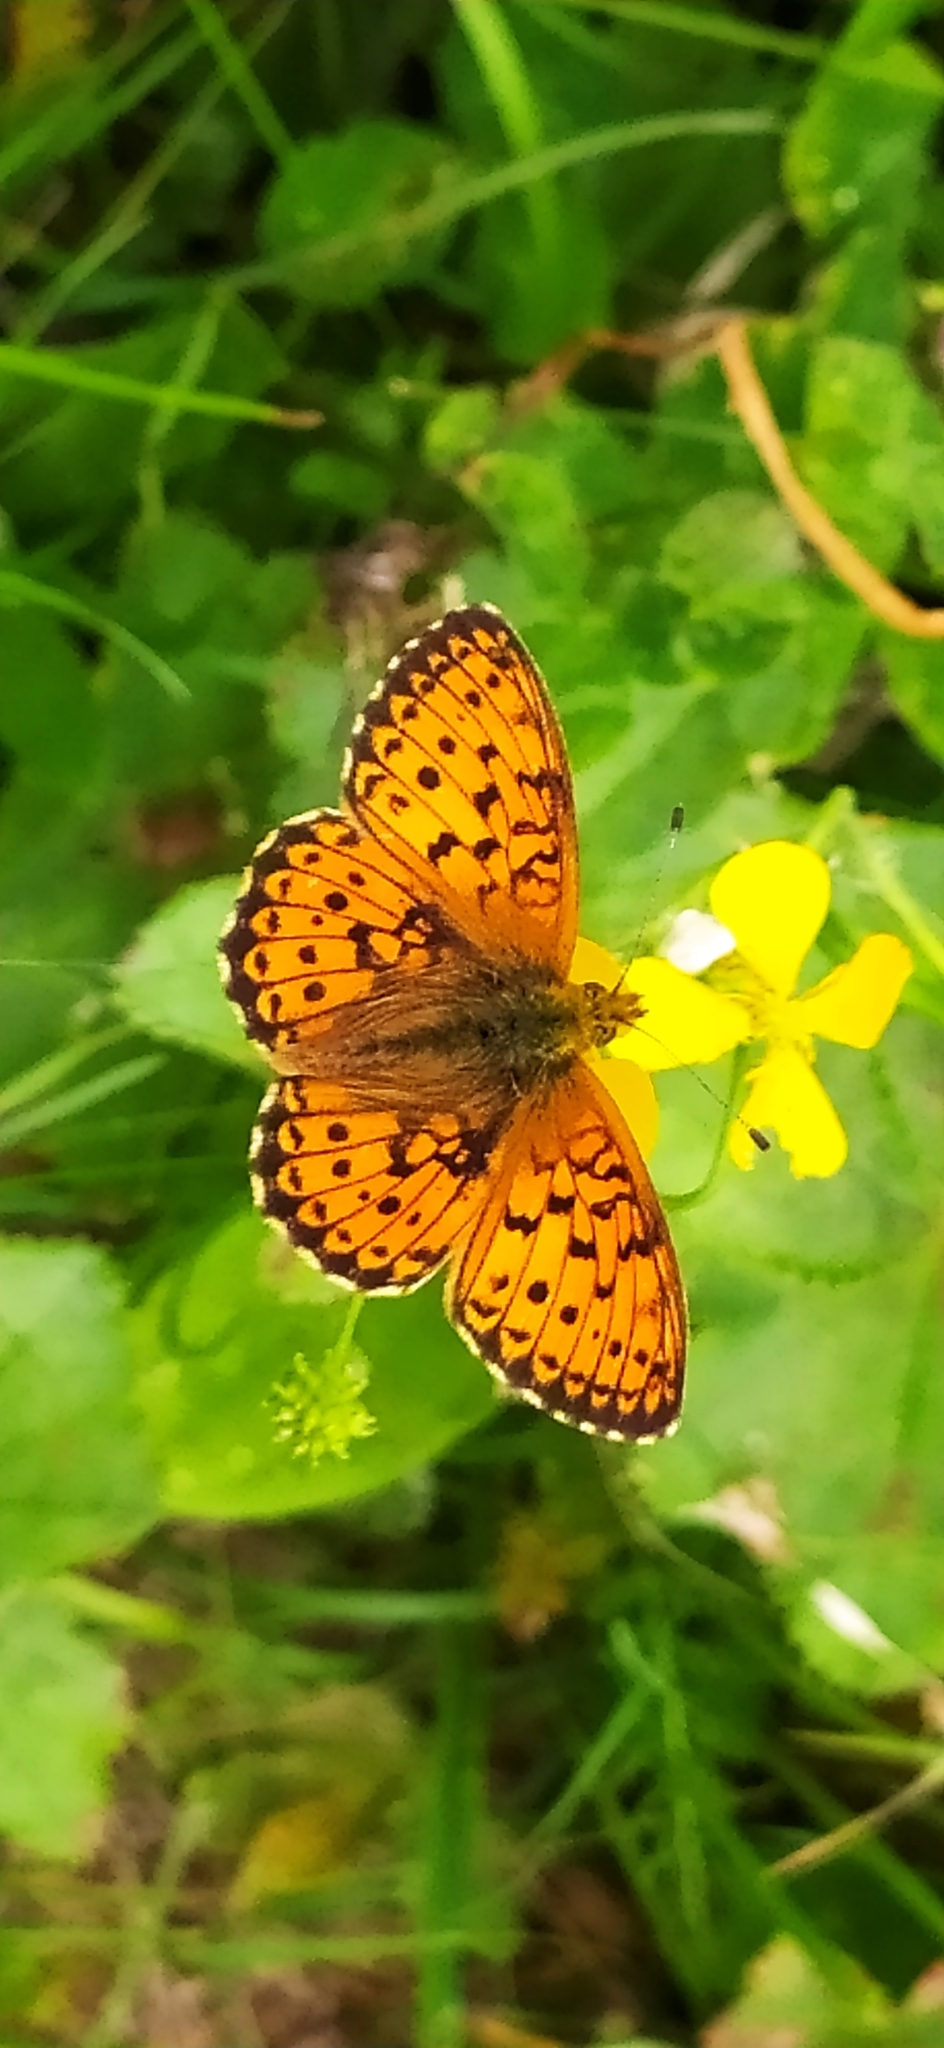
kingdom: Animalia
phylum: Arthropoda
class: Insecta
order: Lepidoptera
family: Nymphalidae
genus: Brenthis
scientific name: Brenthis ino
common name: Lesser marbled fritillary
